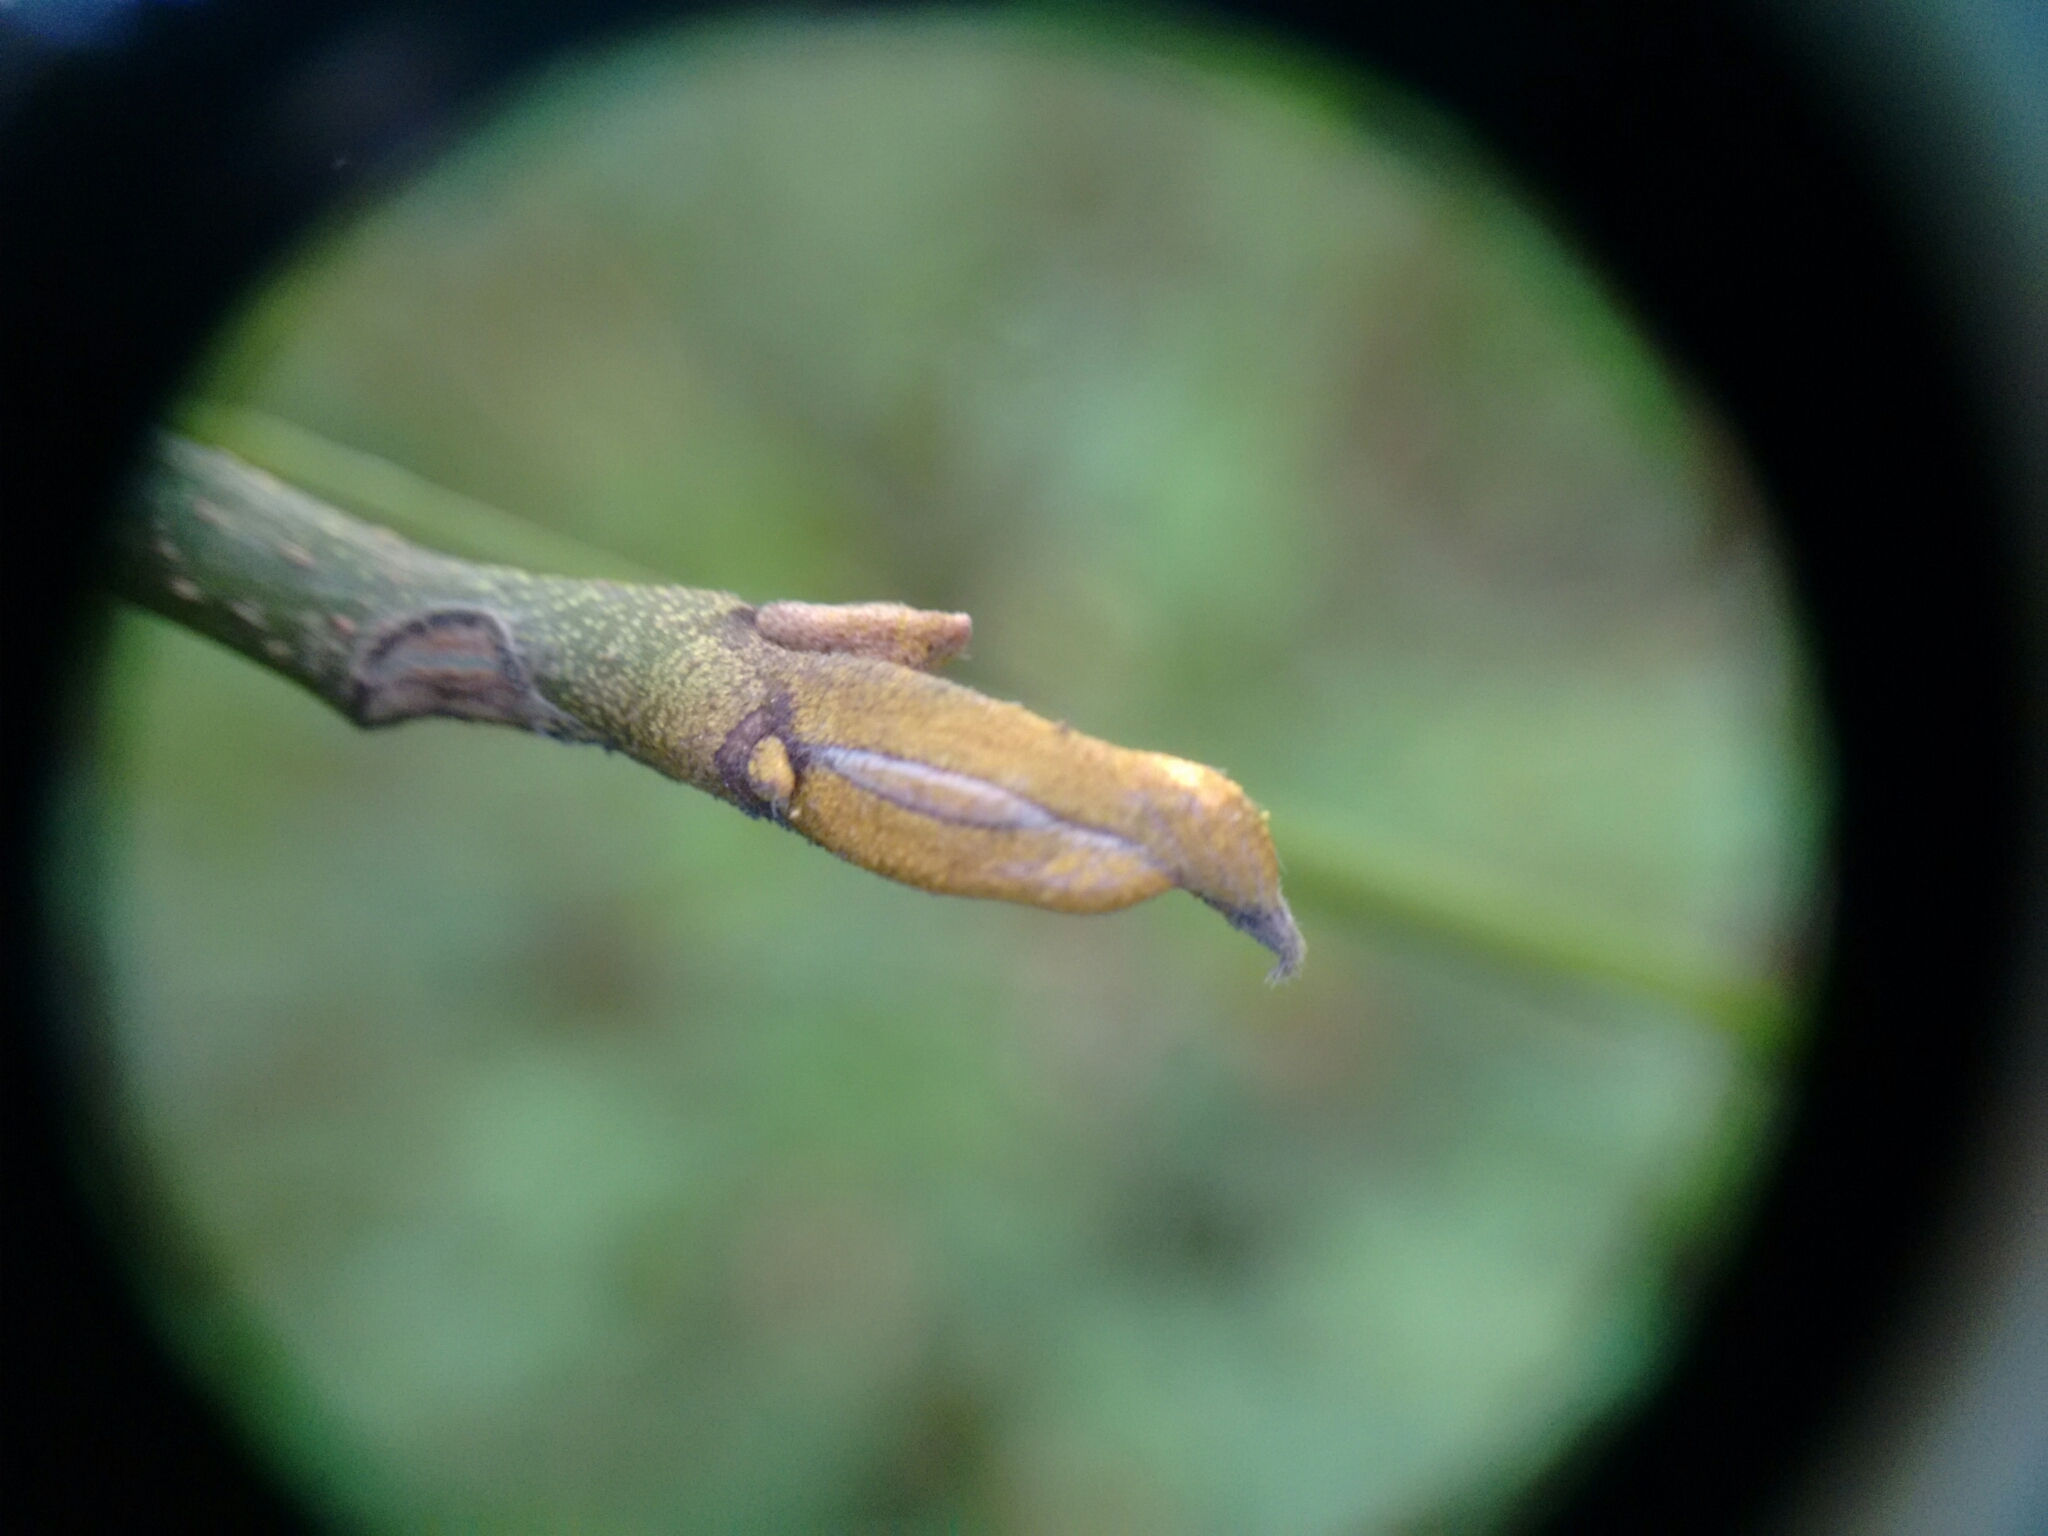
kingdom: Plantae
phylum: Tracheophyta
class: Magnoliopsida
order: Fagales
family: Juglandaceae
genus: Carya
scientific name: Carya cordiformis
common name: Bitternut hickory
